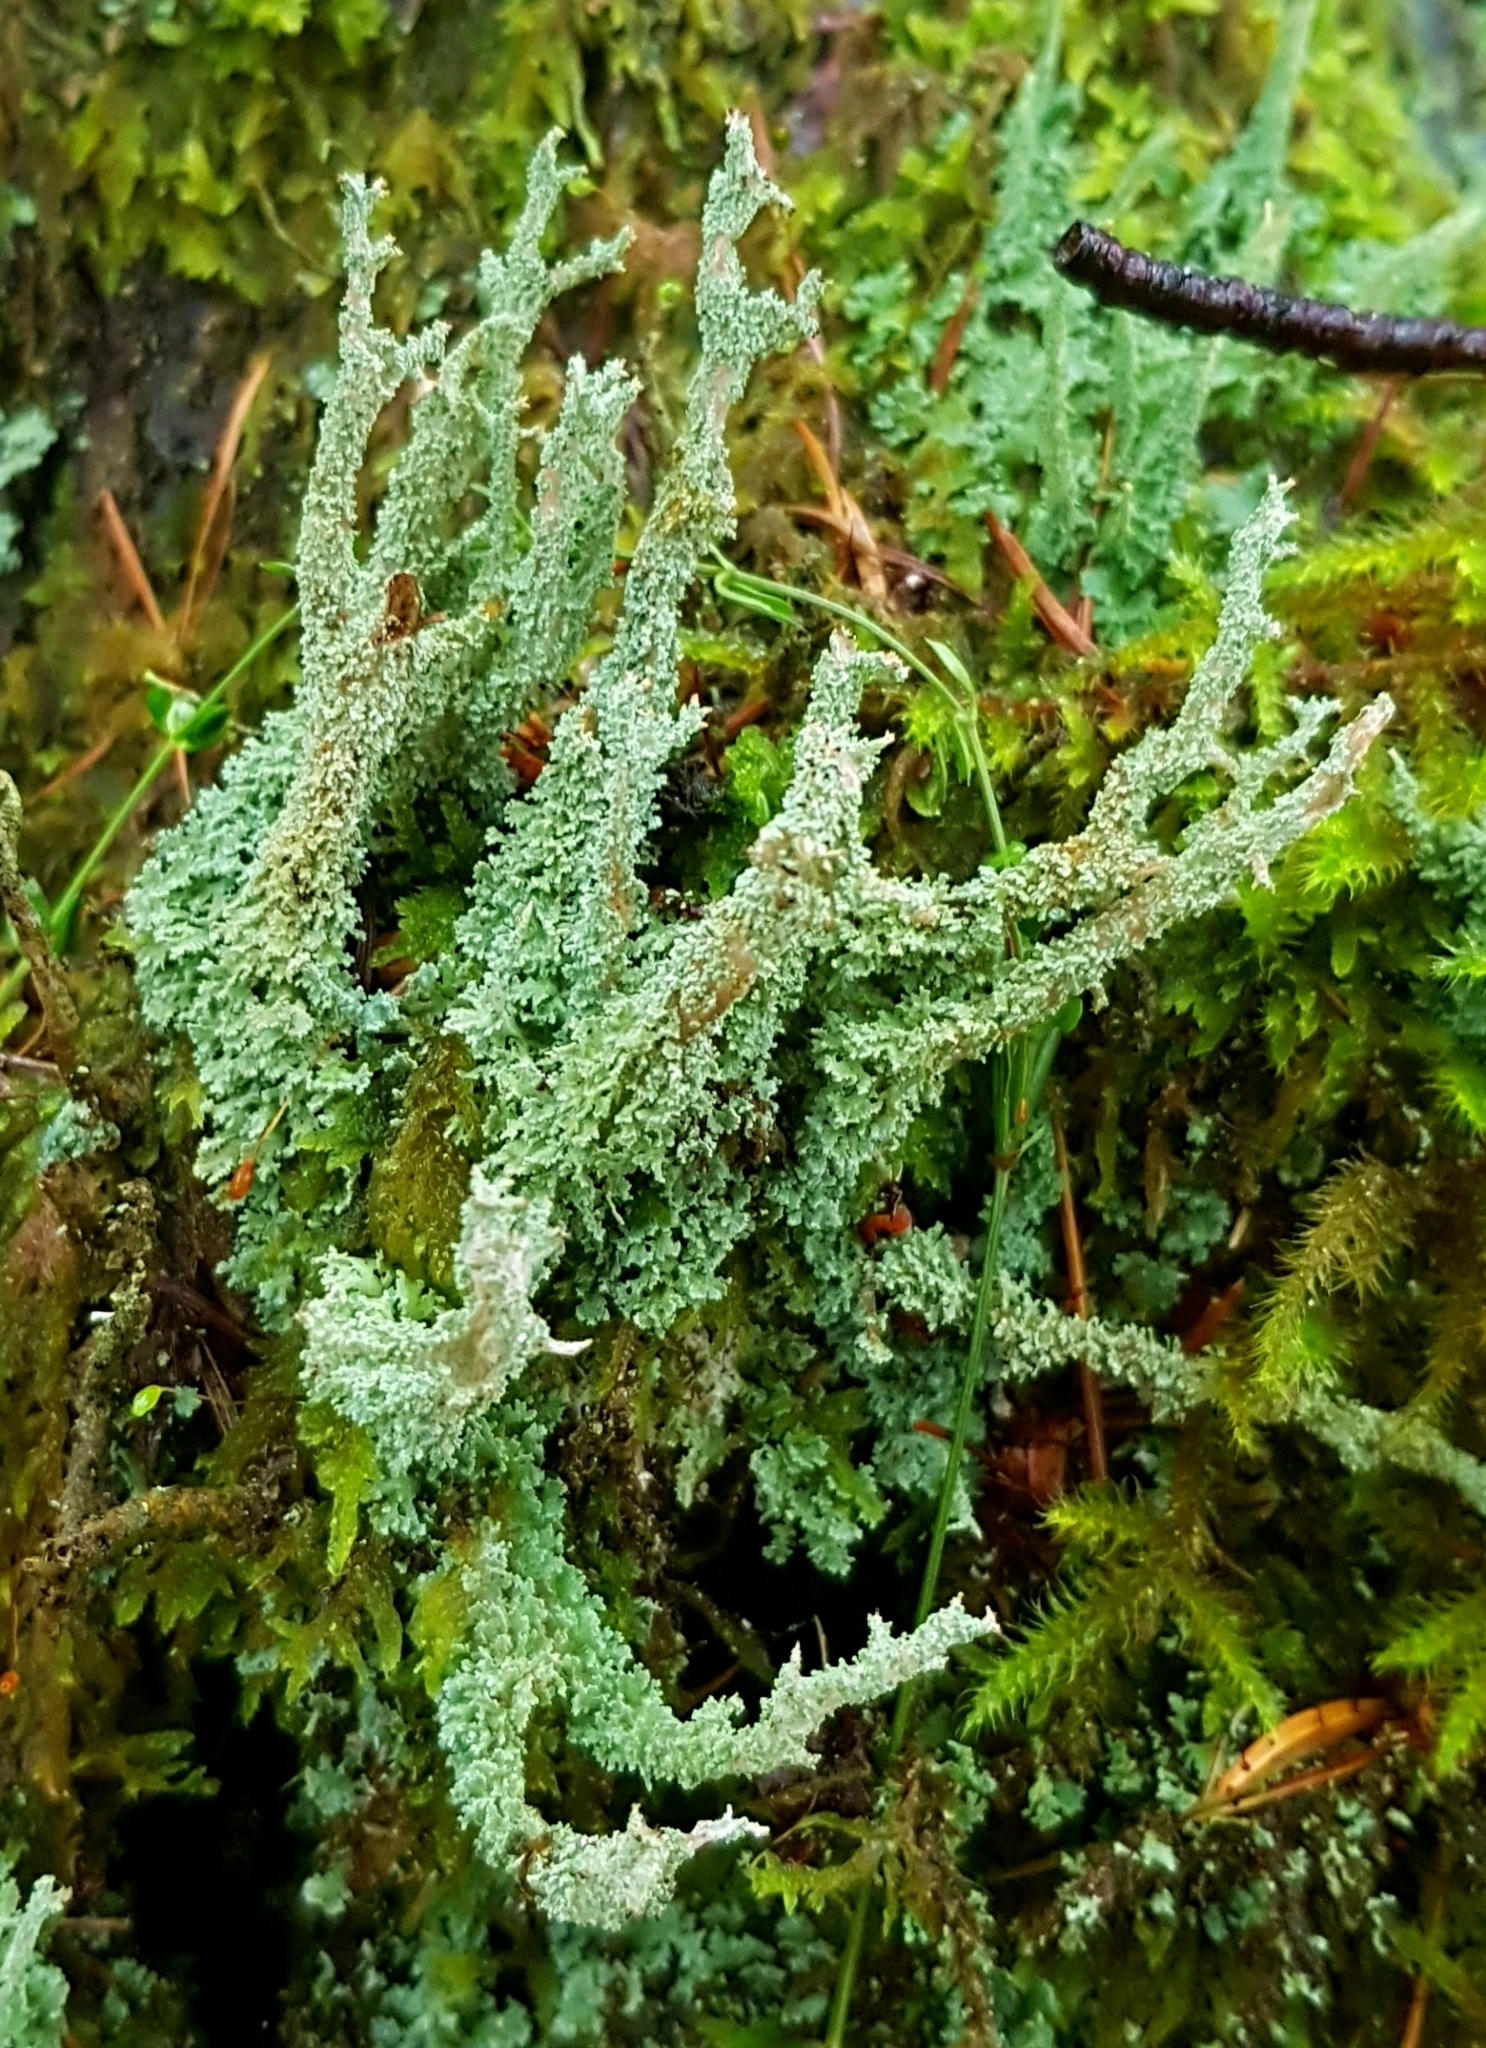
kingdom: Fungi
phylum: Ascomycota
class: Lecanoromycetes
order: Lecanorales
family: Cladoniaceae
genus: Cladonia
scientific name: Cladonia squamosa
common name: Dragon horn
